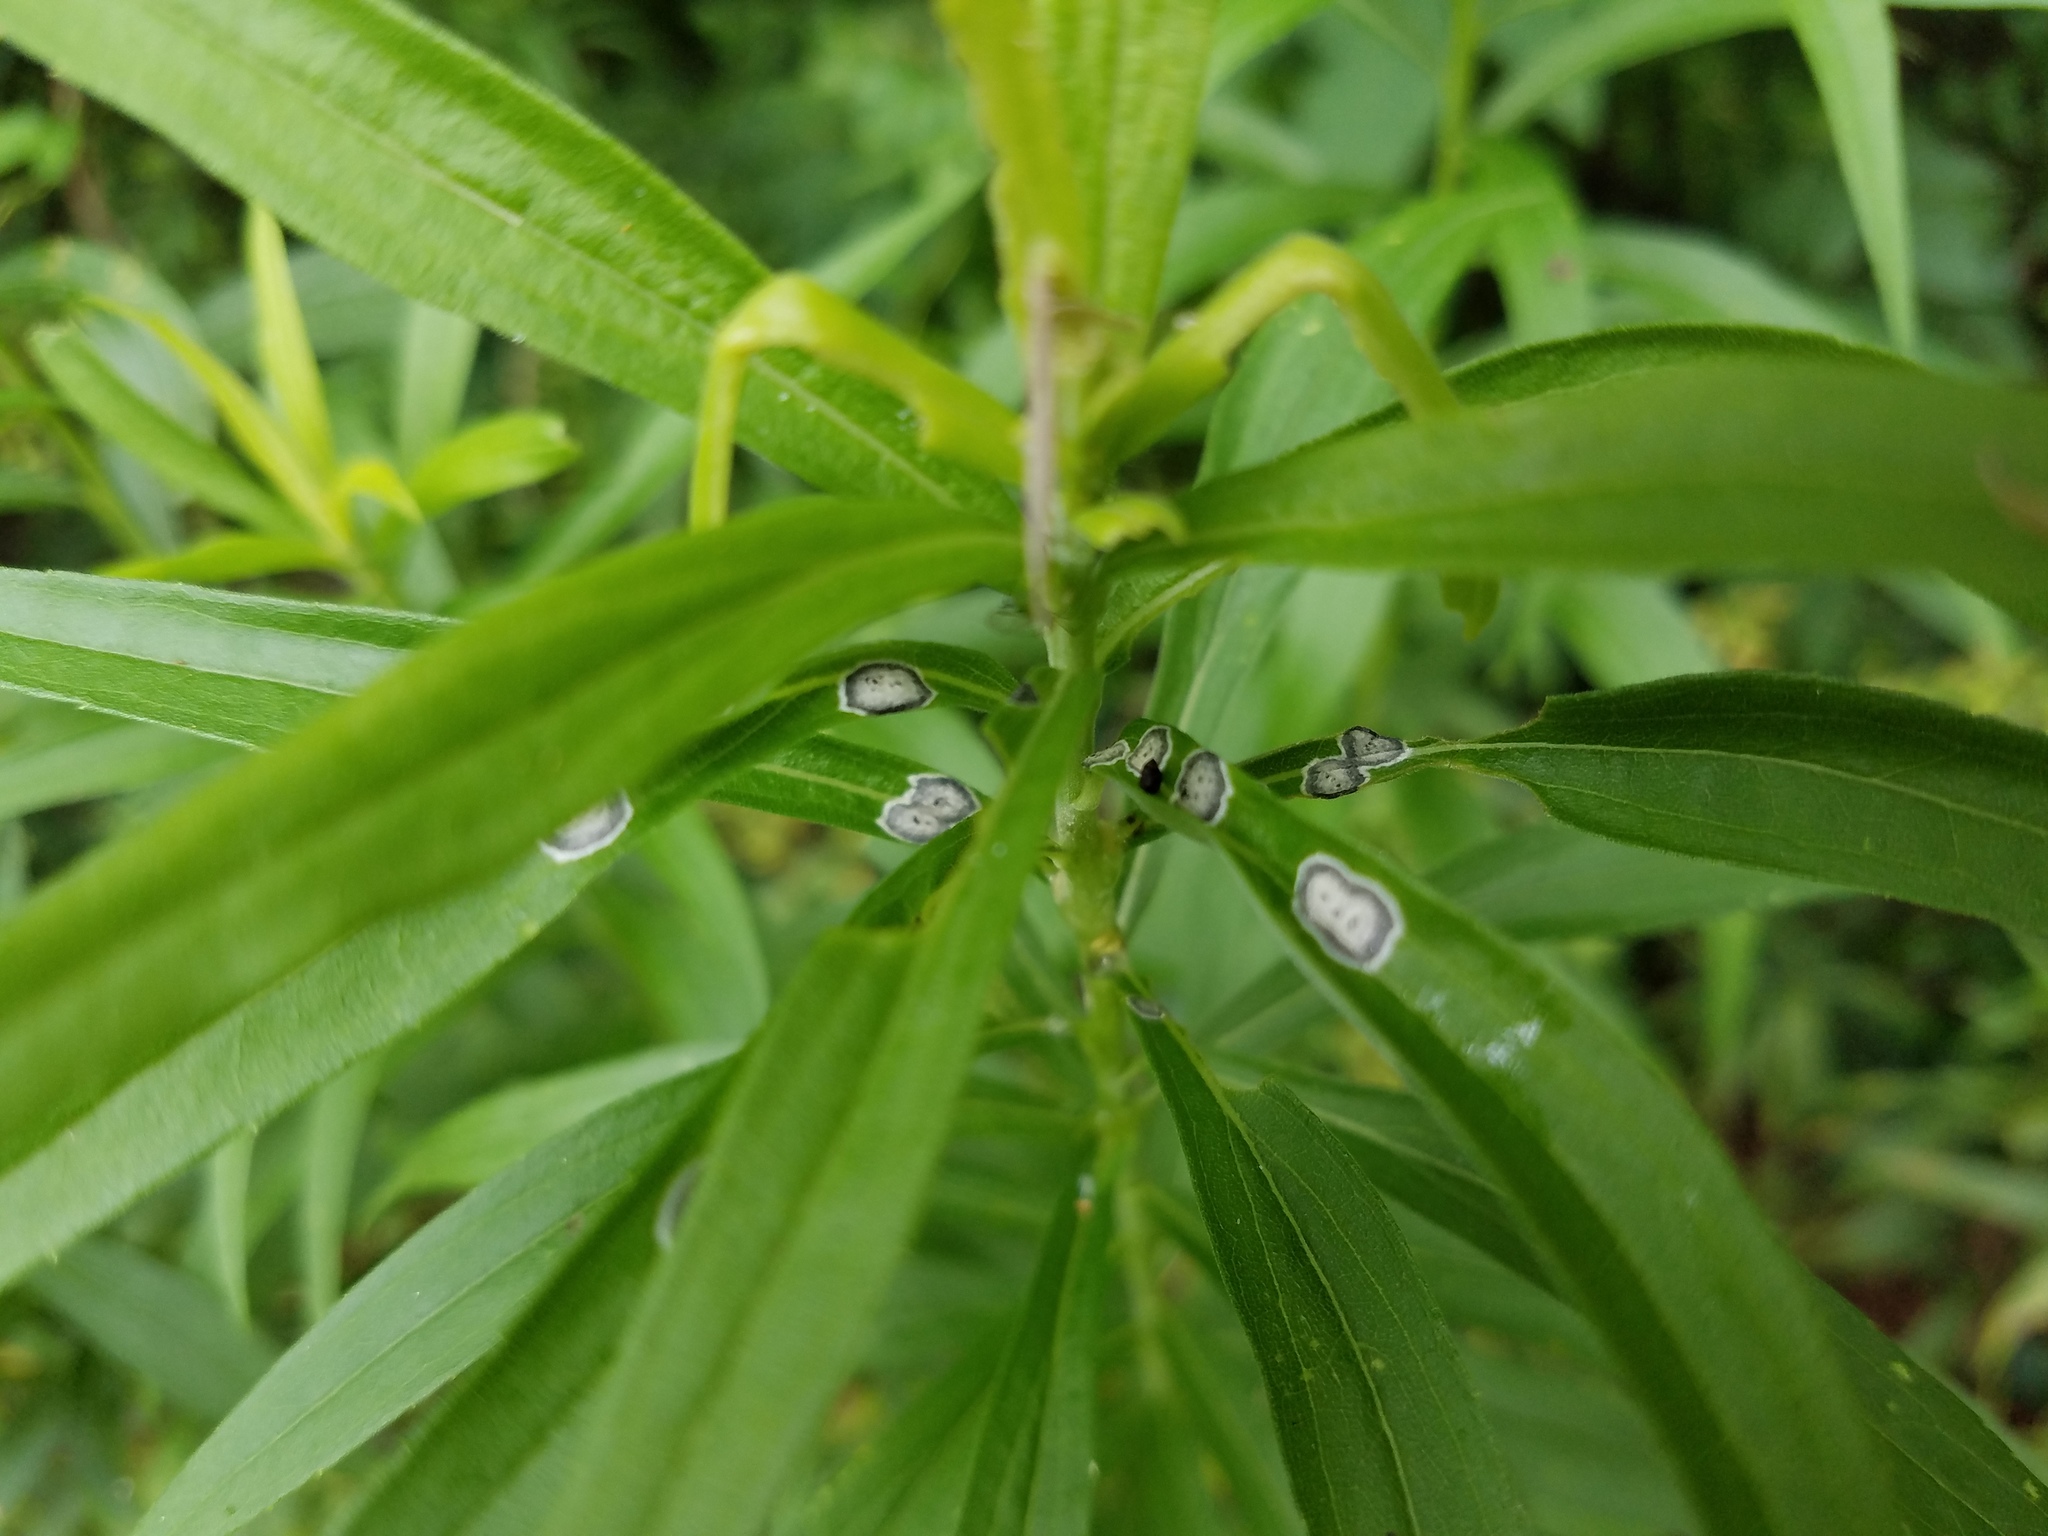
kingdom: Animalia
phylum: Arthropoda
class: Insecta
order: Diptera
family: Cecidomyiidae
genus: Asteromyia
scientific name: Asteromyia carbonifera
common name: Carbonifera goldenrod gall midge
